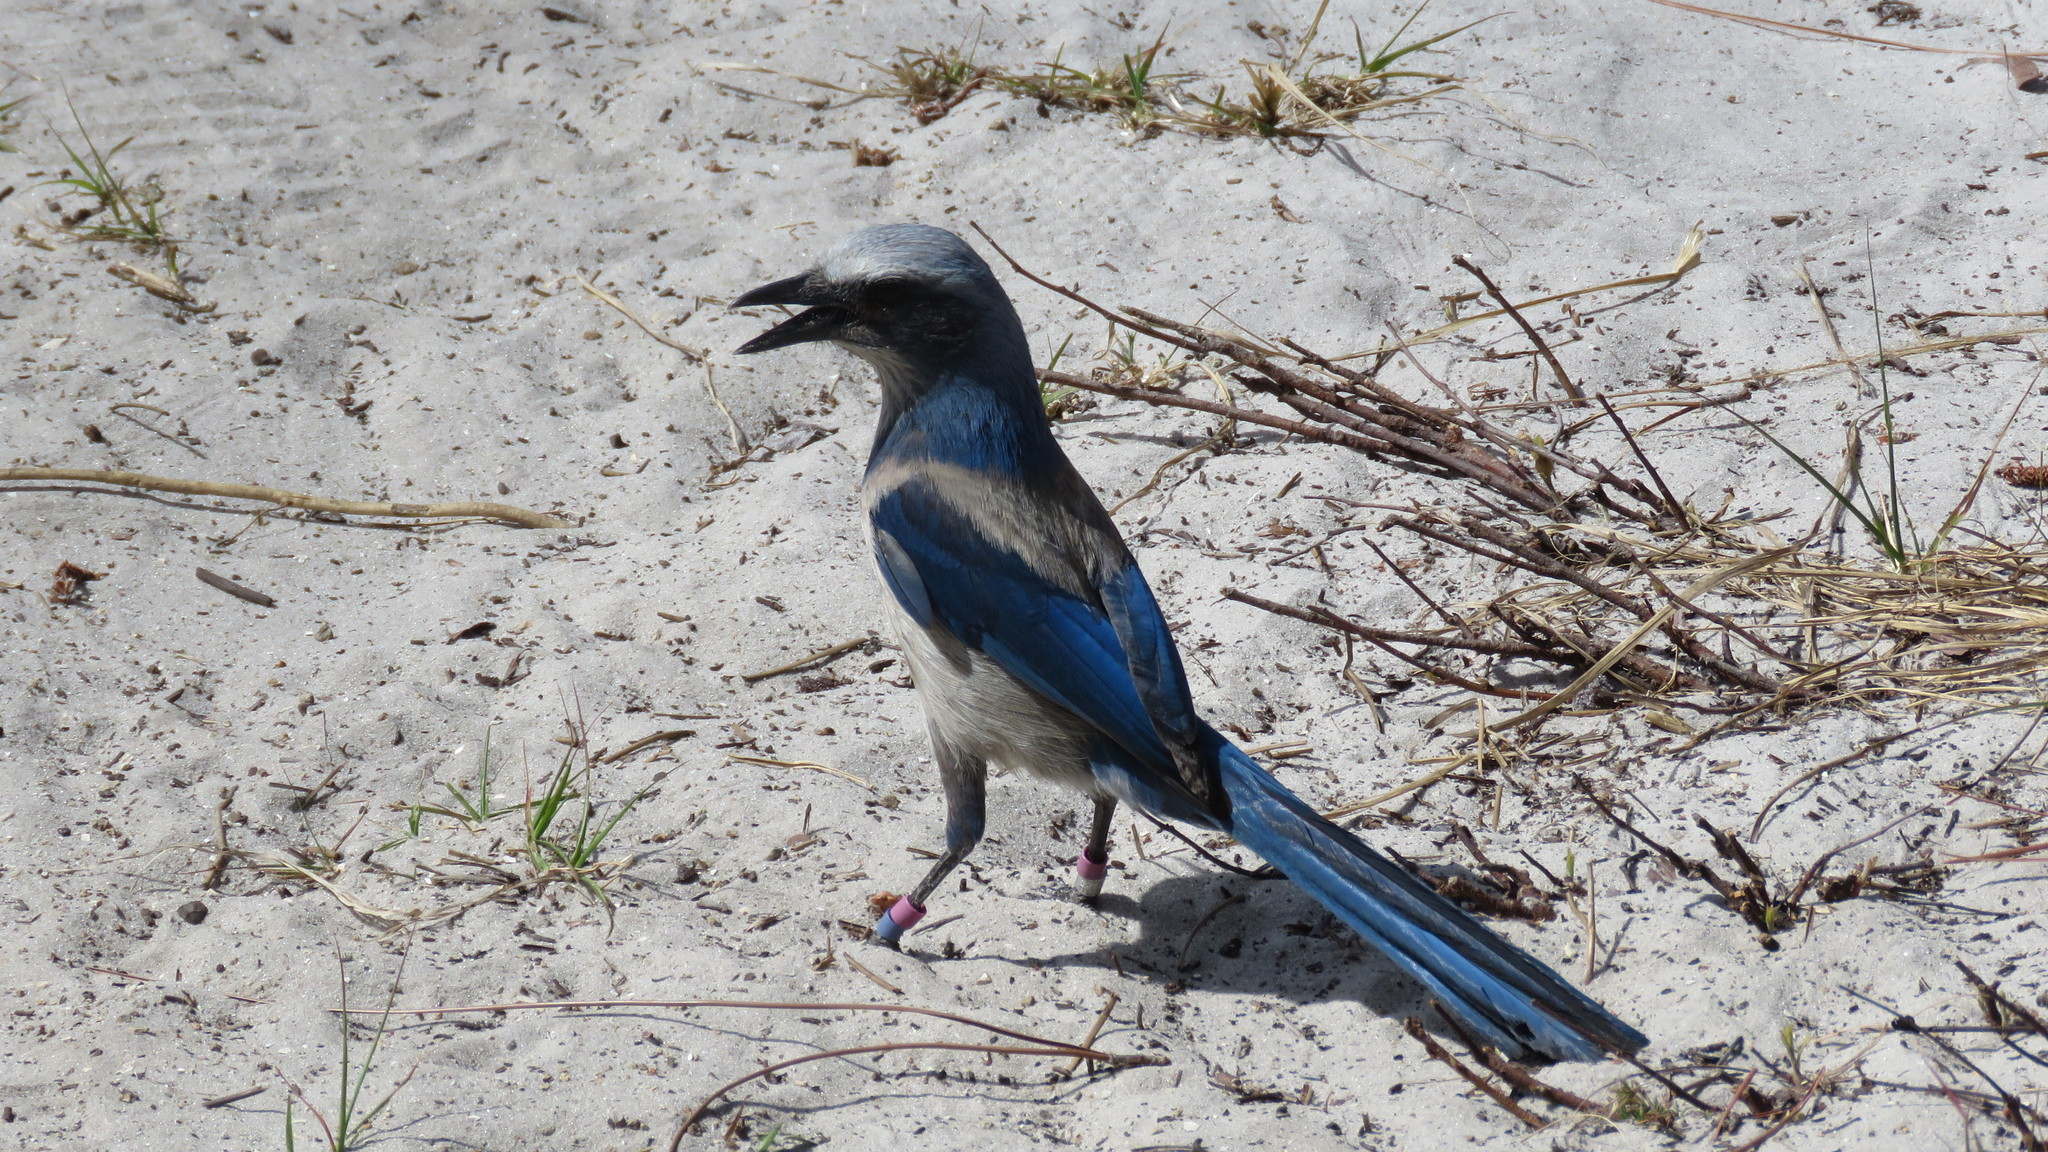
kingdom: Animalia
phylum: Chordata
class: Aves
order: Passeriformes
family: Corvidae
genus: Aphelocoma
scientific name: Aphelocoma coerulescens
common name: Florida scrub jay
